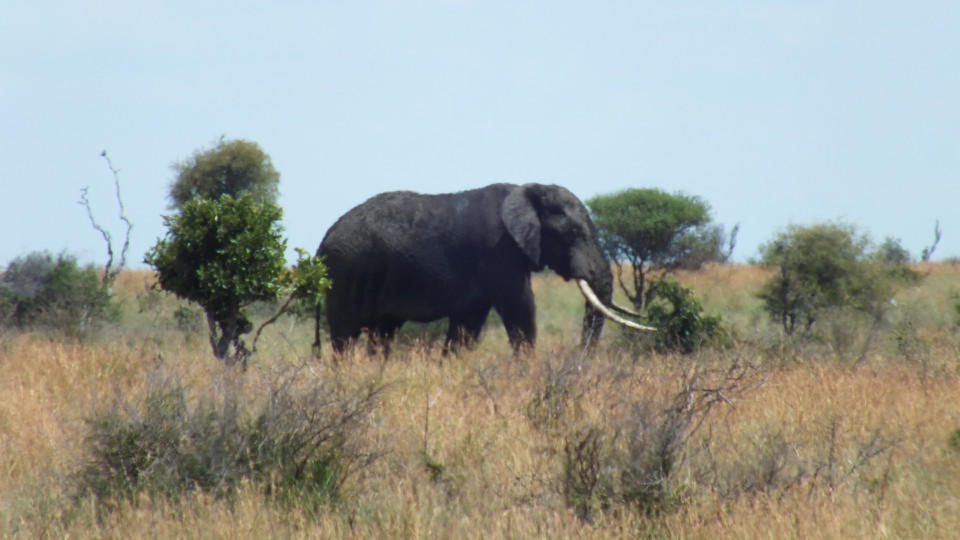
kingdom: Animalia
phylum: Chordata
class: Mammalia
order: Proboscidea
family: Elephantidae
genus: Loxodonta
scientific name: Loxodonta africana
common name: African elephant
